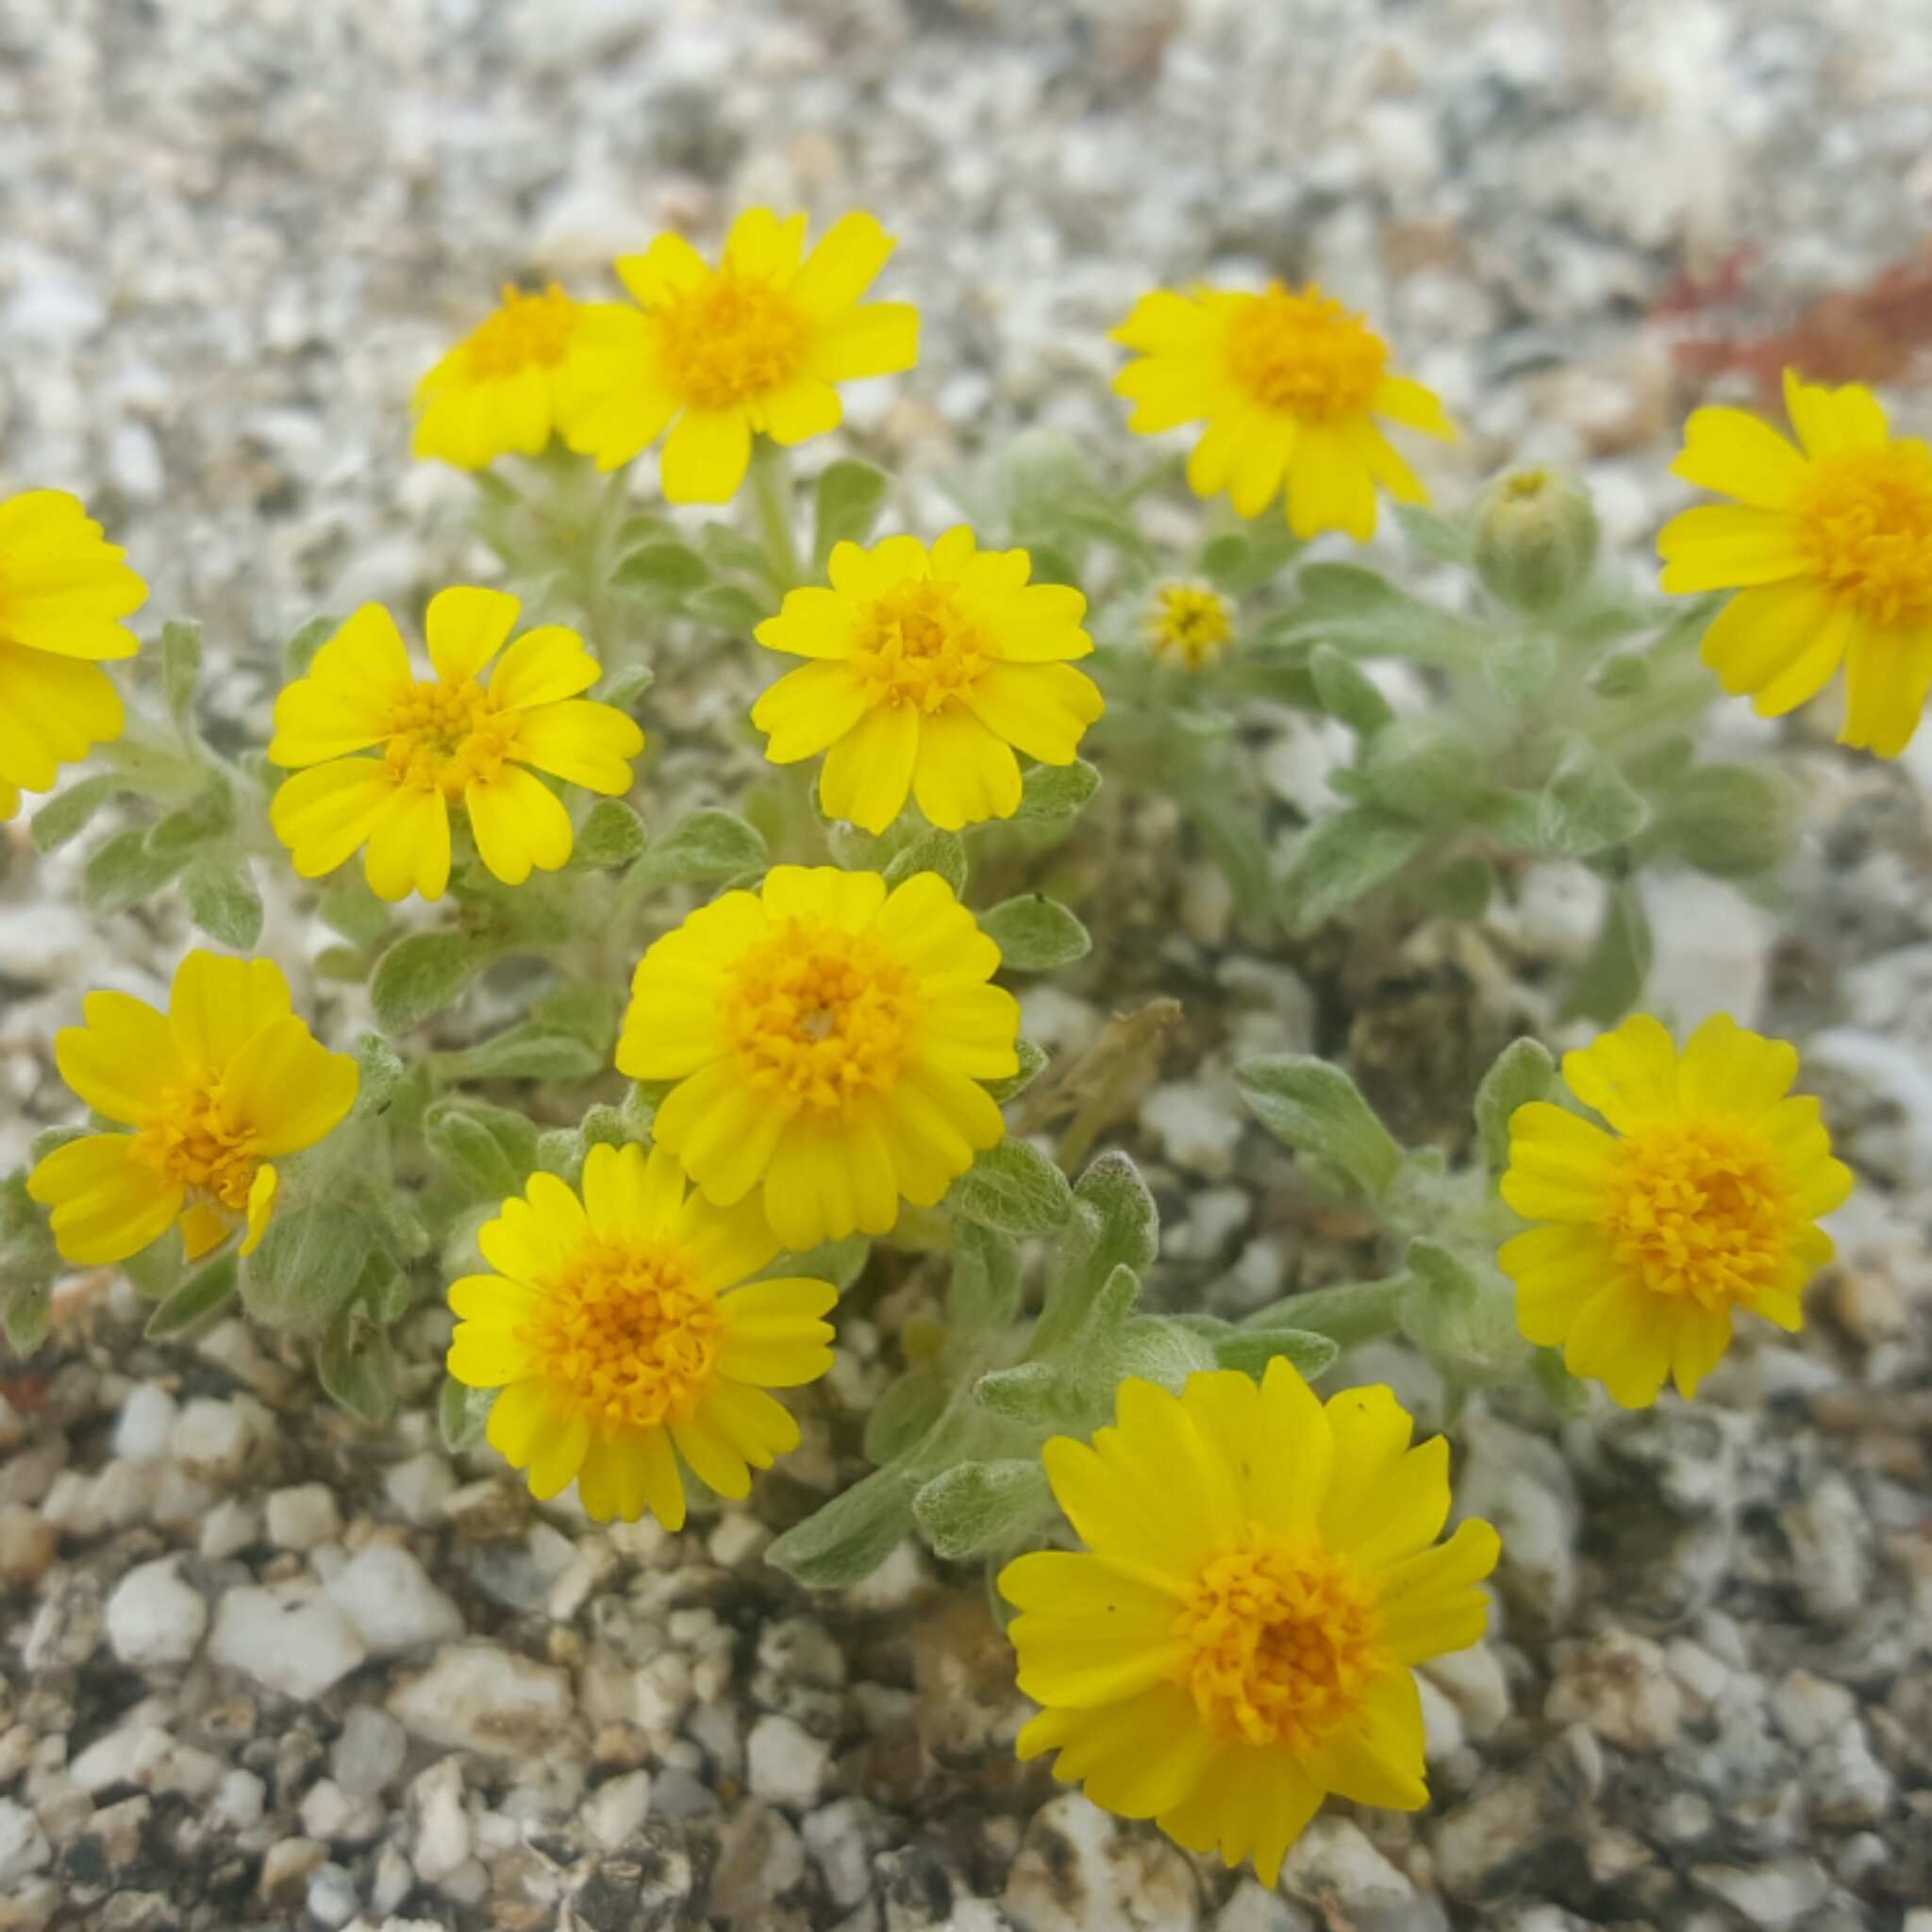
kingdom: Plantae
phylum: Tracheophyta
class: Magnoliopsida
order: Asterales
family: Asteraceae
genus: Eriophyllum
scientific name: Eriophyllum wallacei
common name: Wallace's woolly daisy
